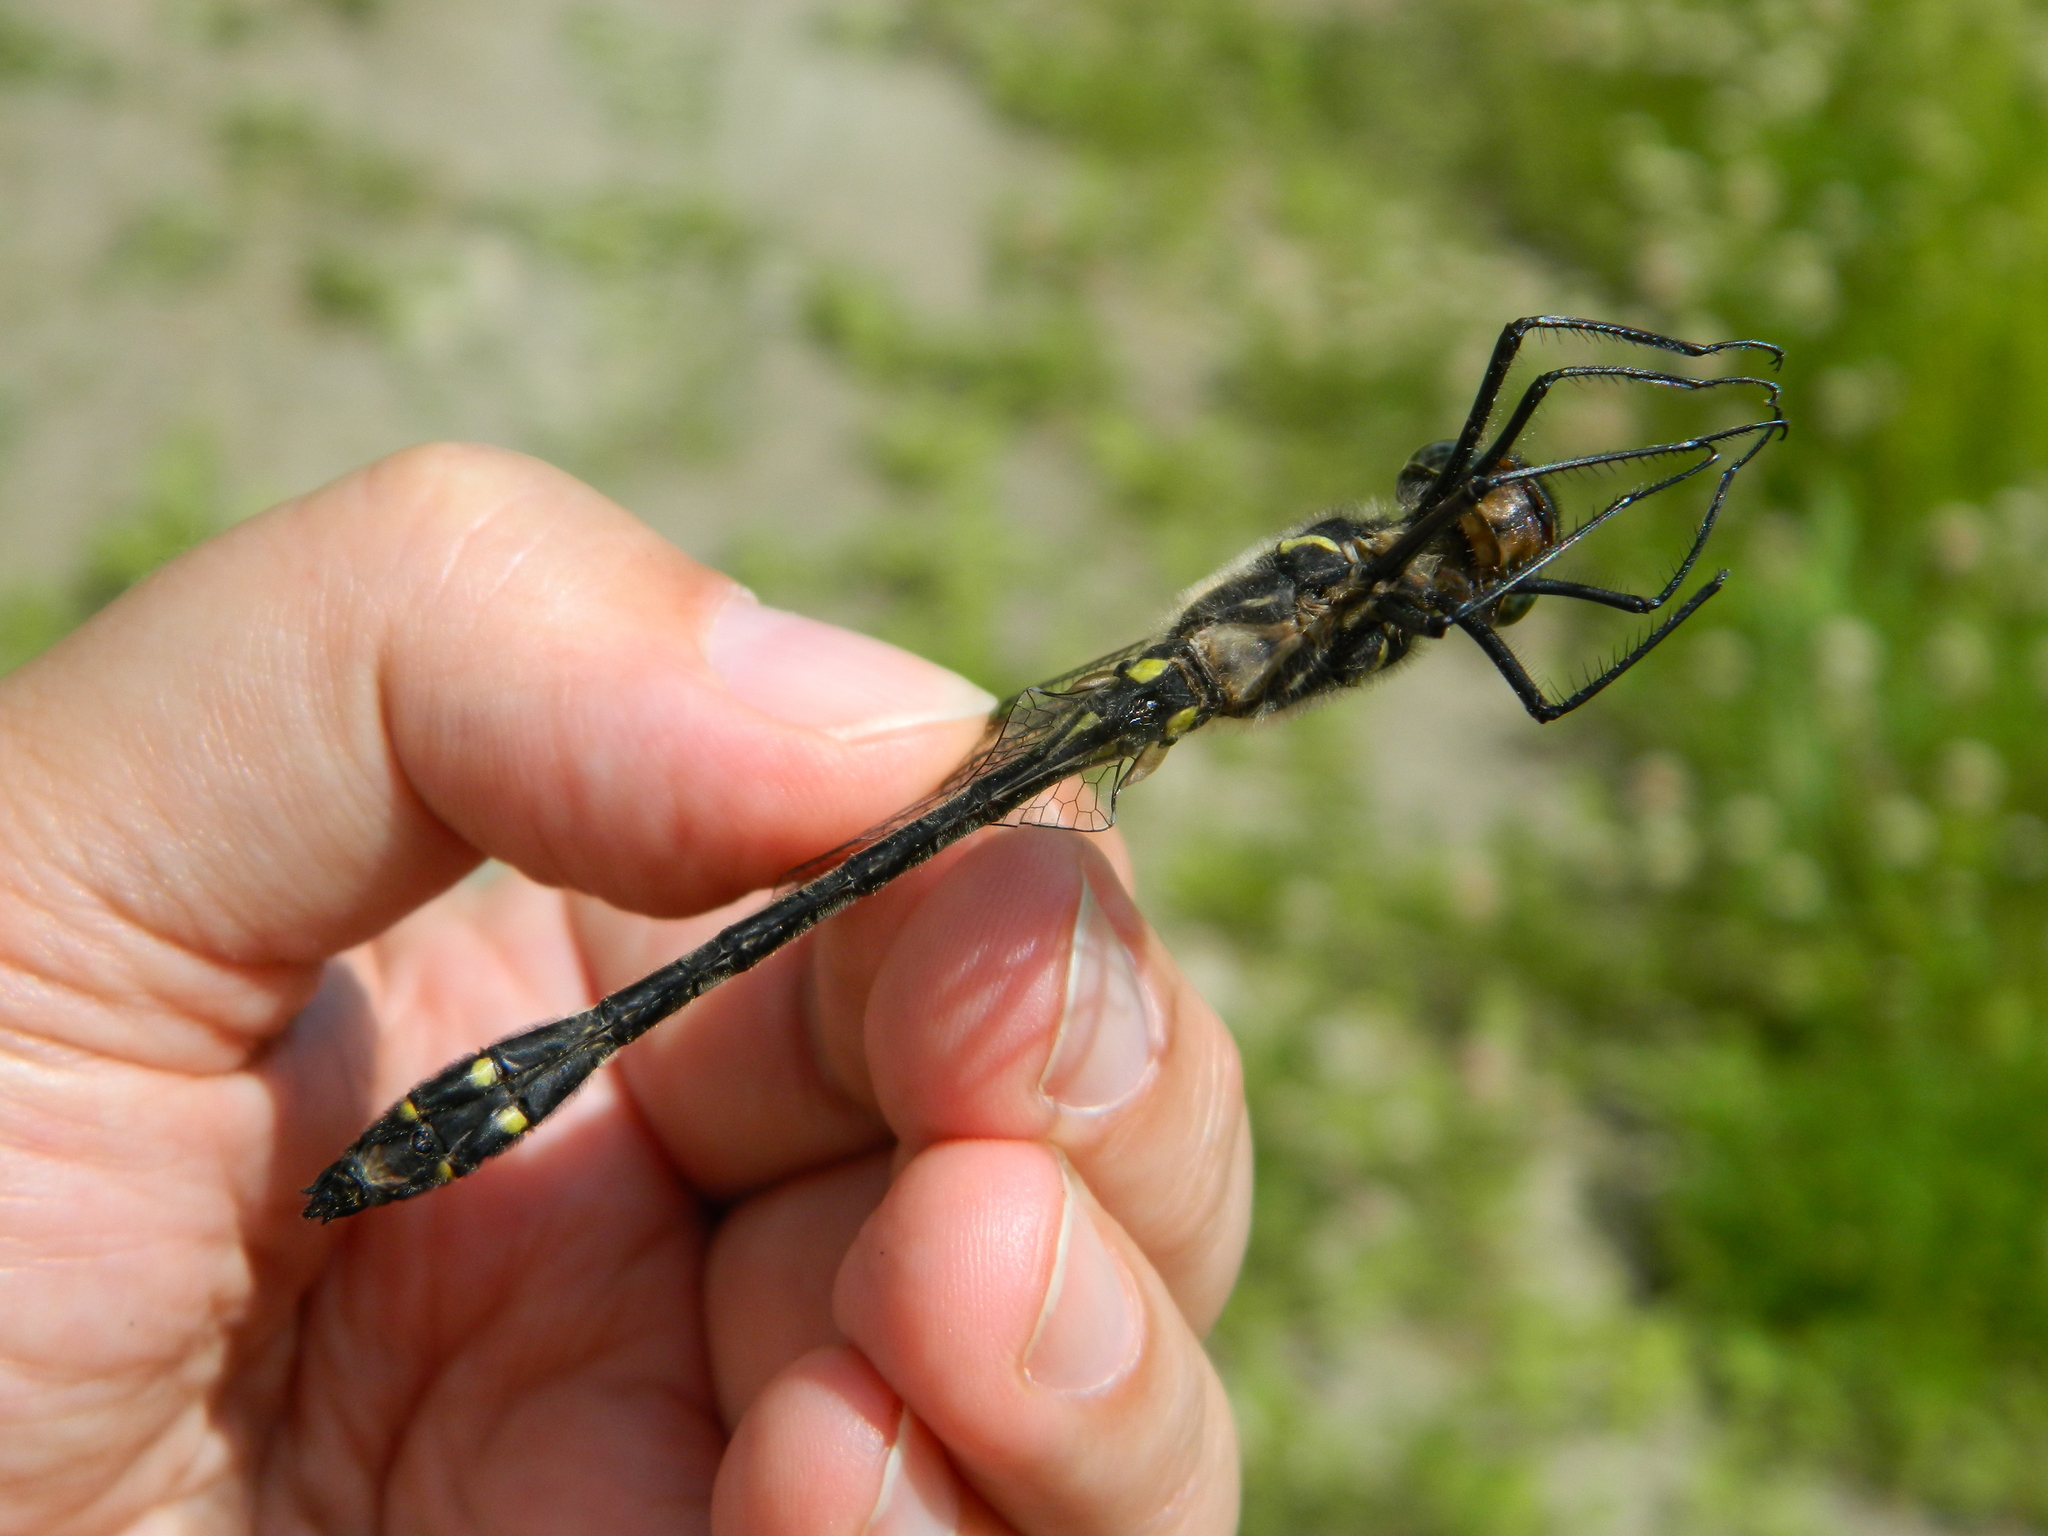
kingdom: Animalia
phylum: Arthropoda
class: Insecta
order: Odonata
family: Macromiidae
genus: Macromia
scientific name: Macromia illinoiensis
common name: Swift river cruiser
